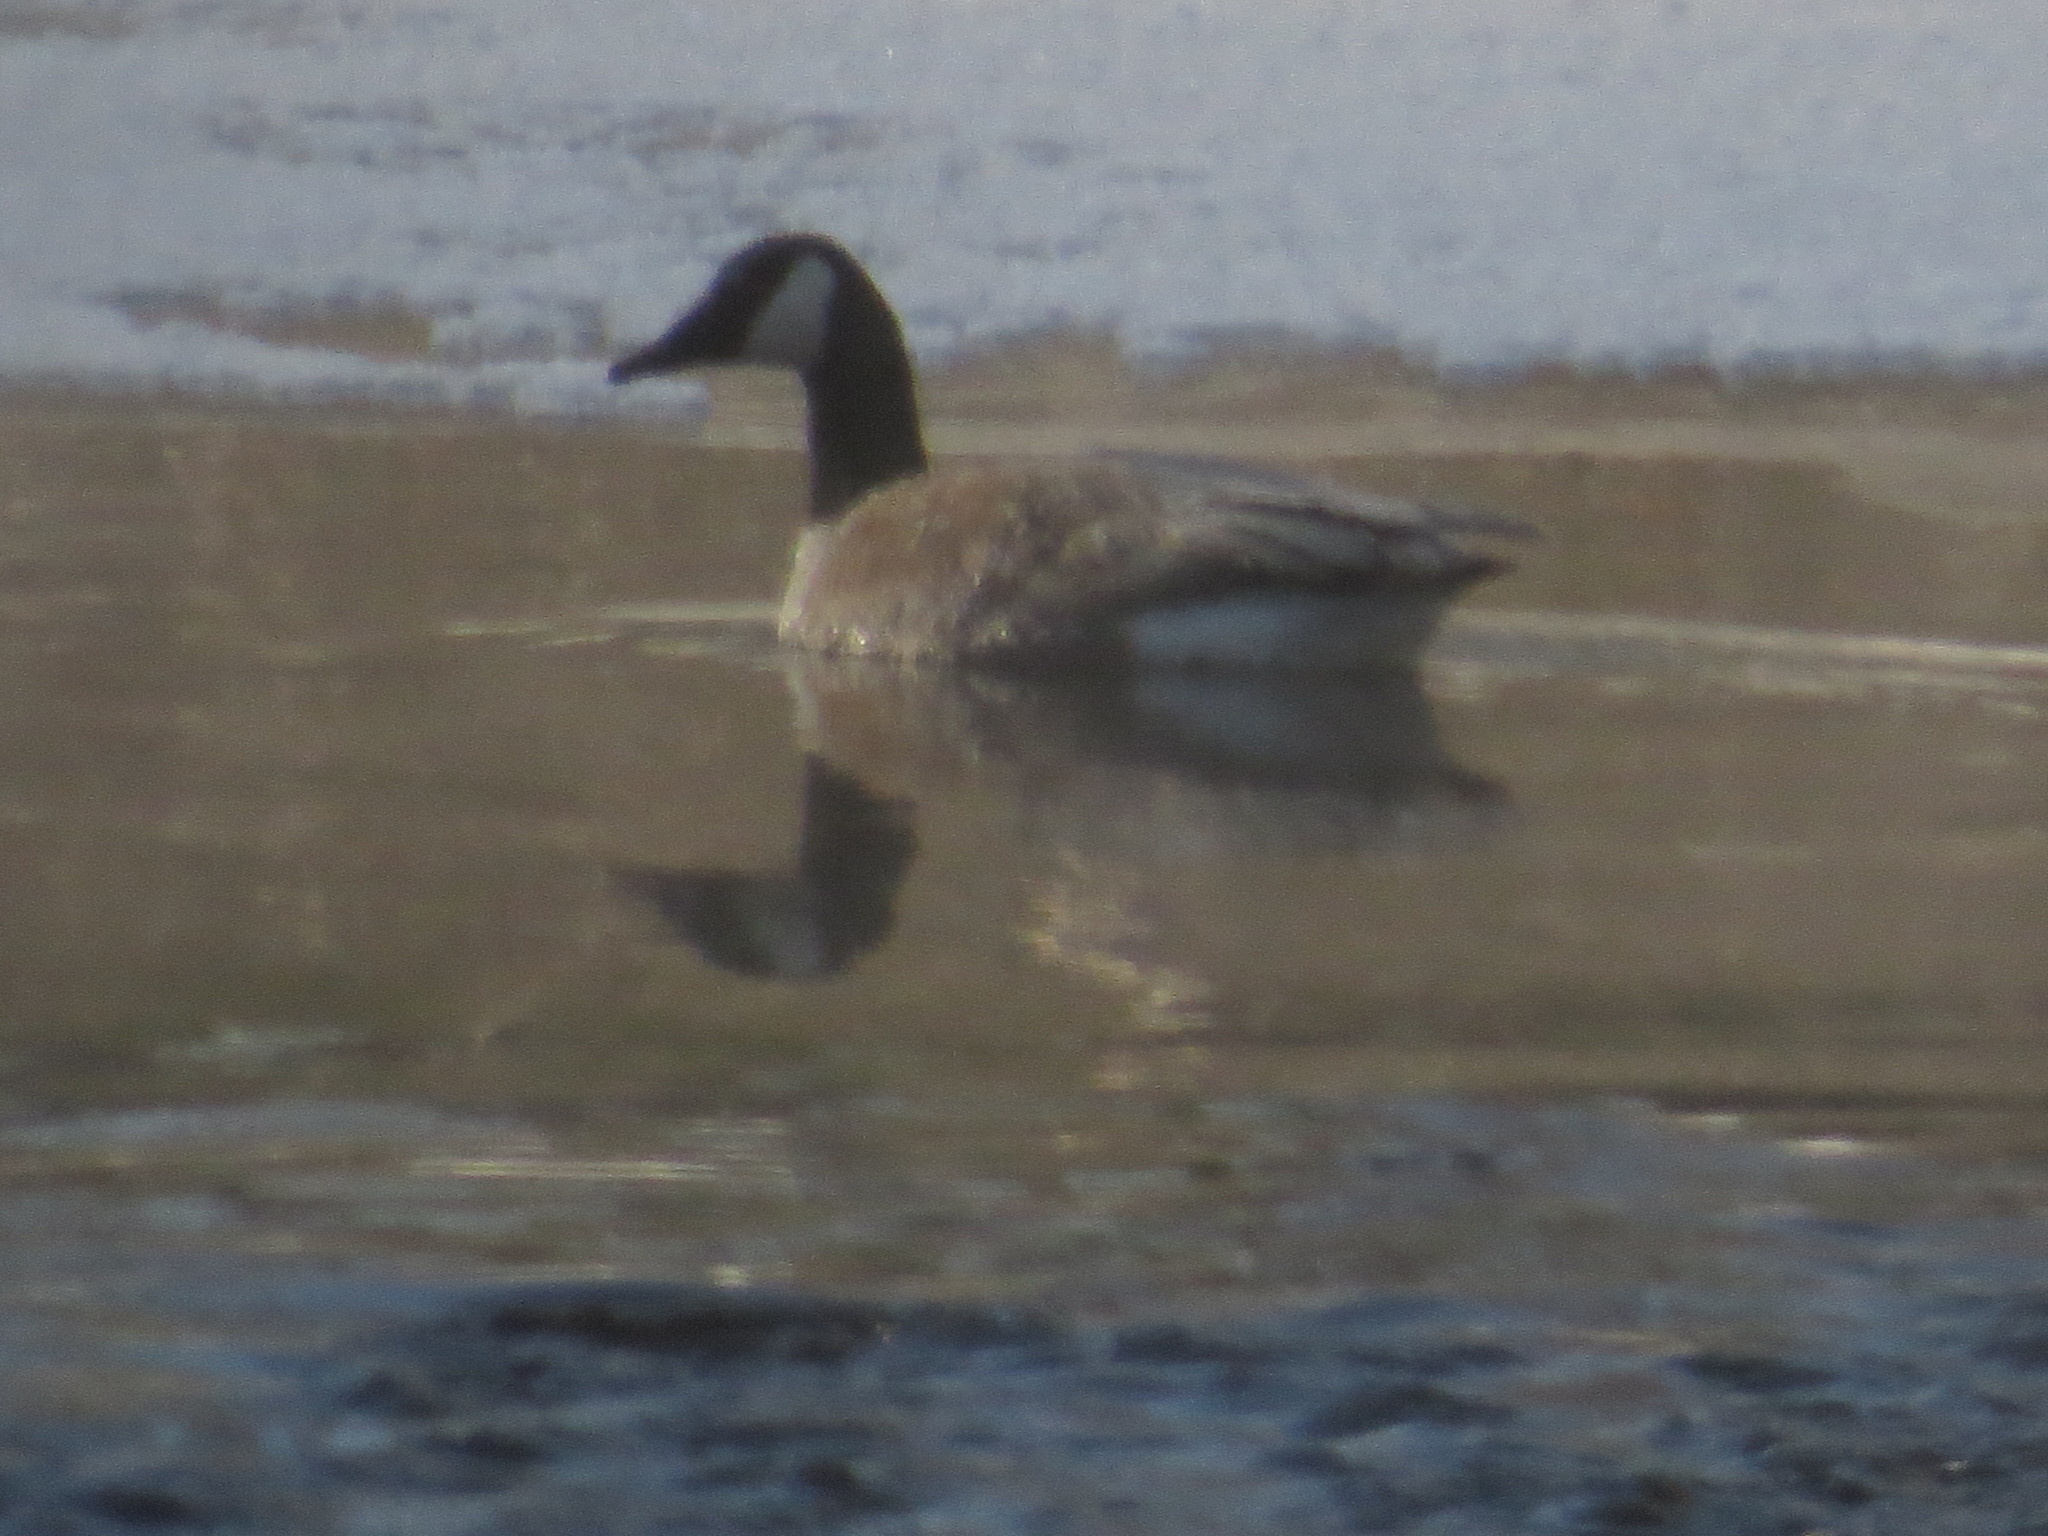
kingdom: Animalia
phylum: Chordata
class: Aves
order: Anseriformes
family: Anatidae
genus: Branta
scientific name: Branta canadensis
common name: Canada goose
